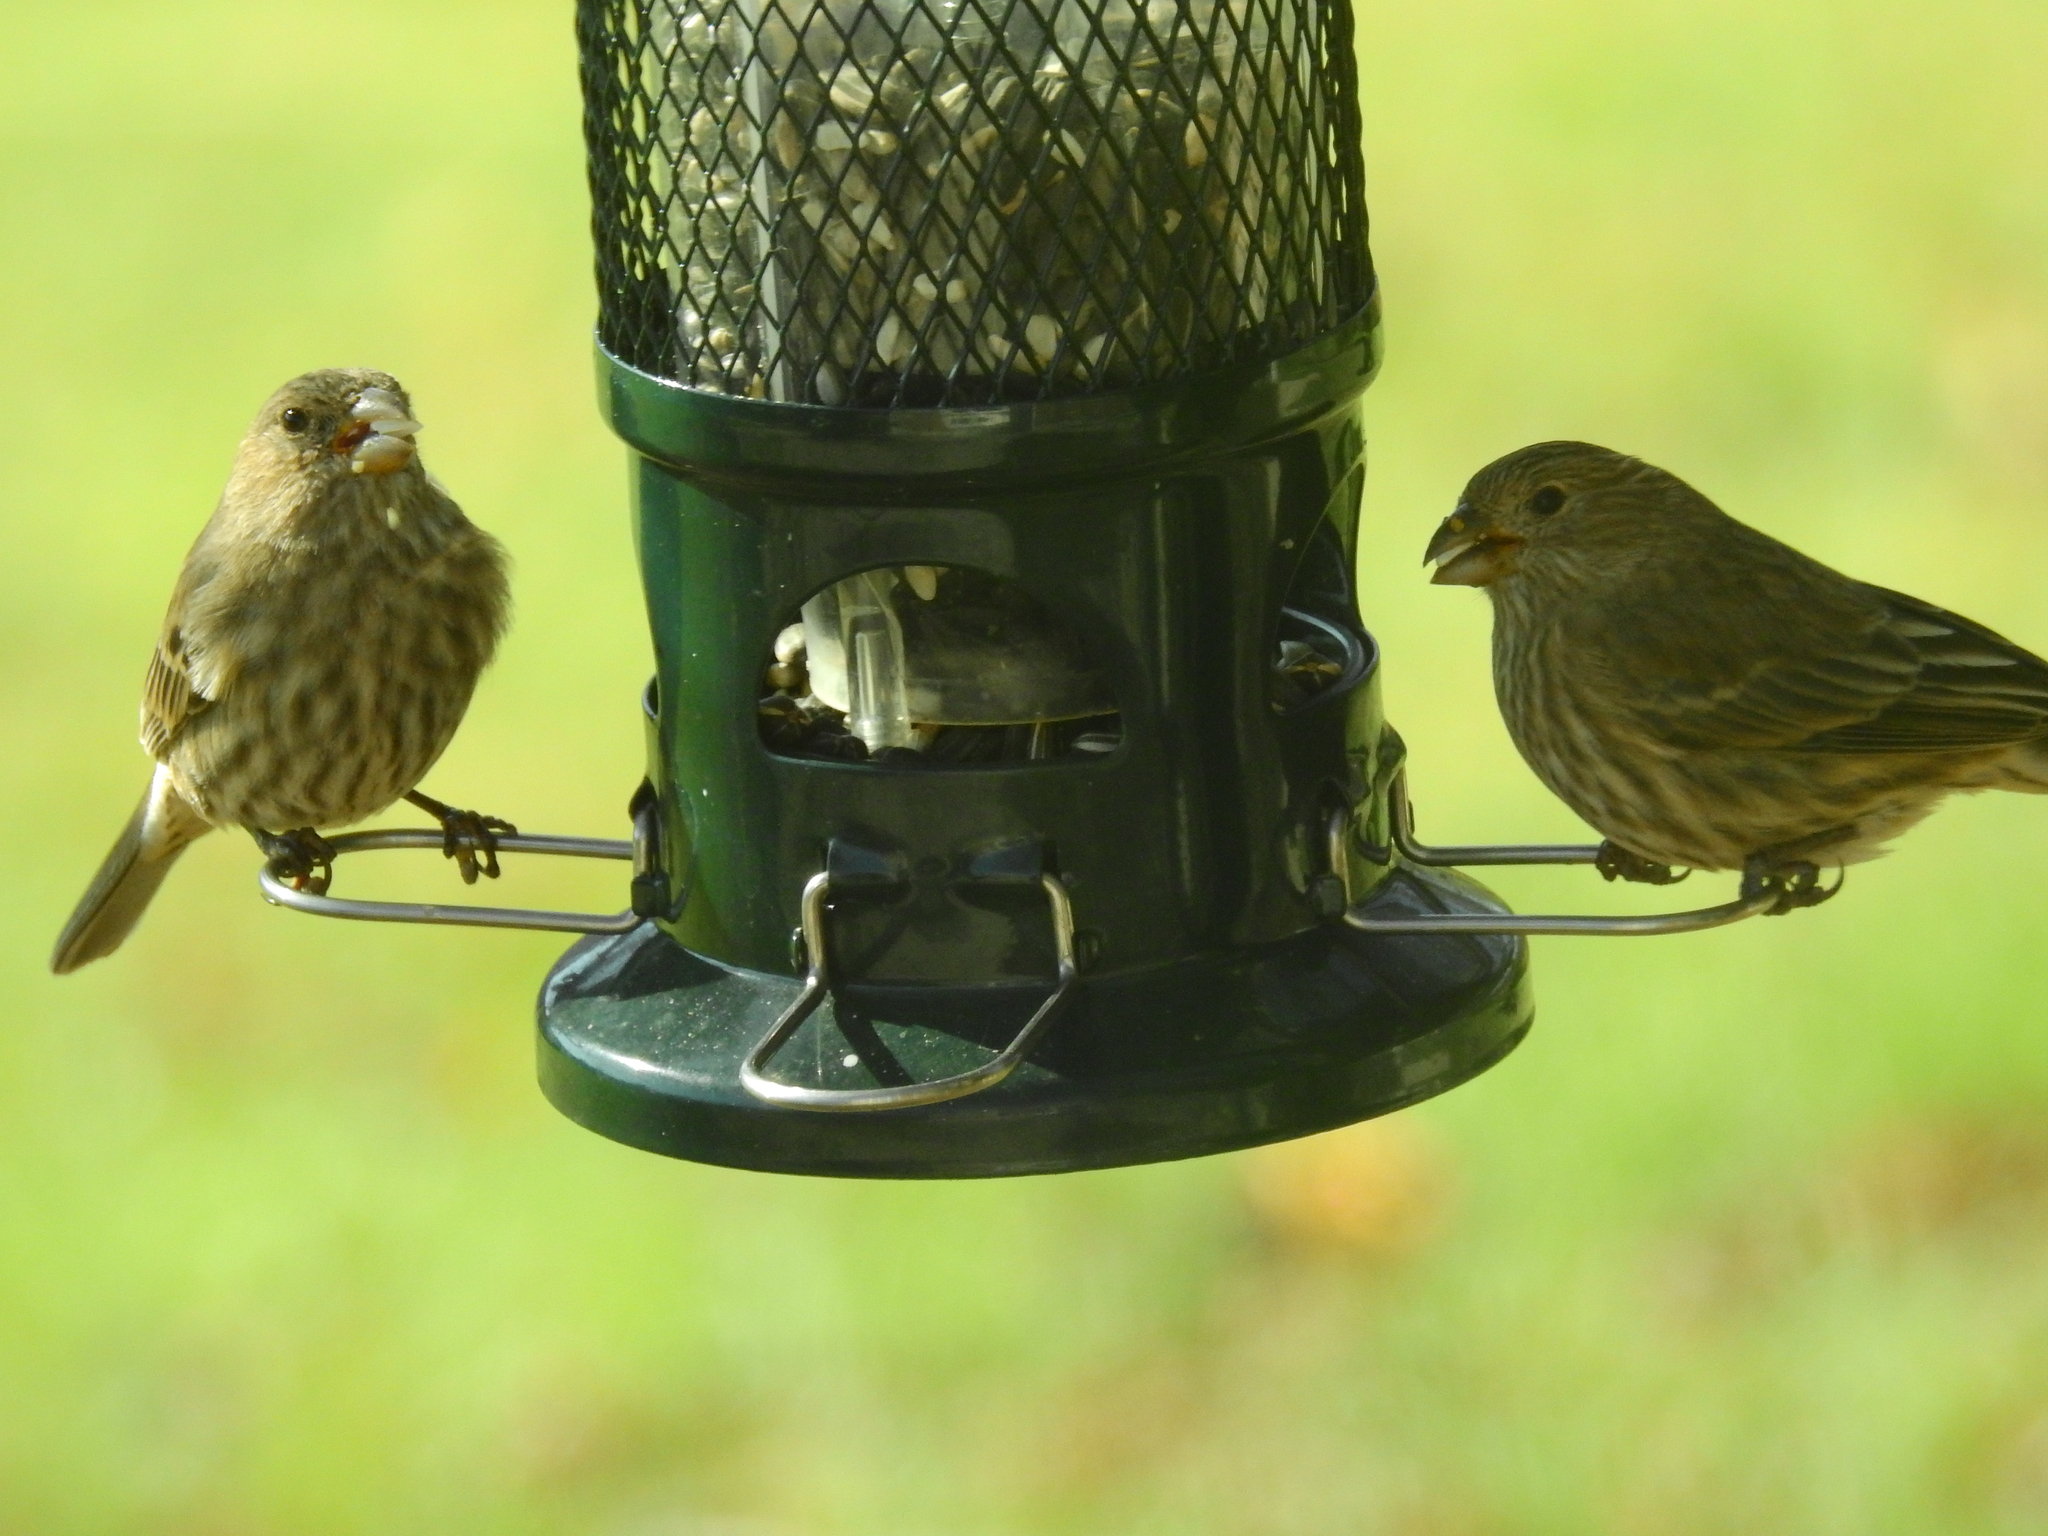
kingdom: Animalia
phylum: Chordata
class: Aves
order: Passeriformes
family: Fringillidae
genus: Haemorhous
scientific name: Haemorhous mexicanus
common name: House finch
